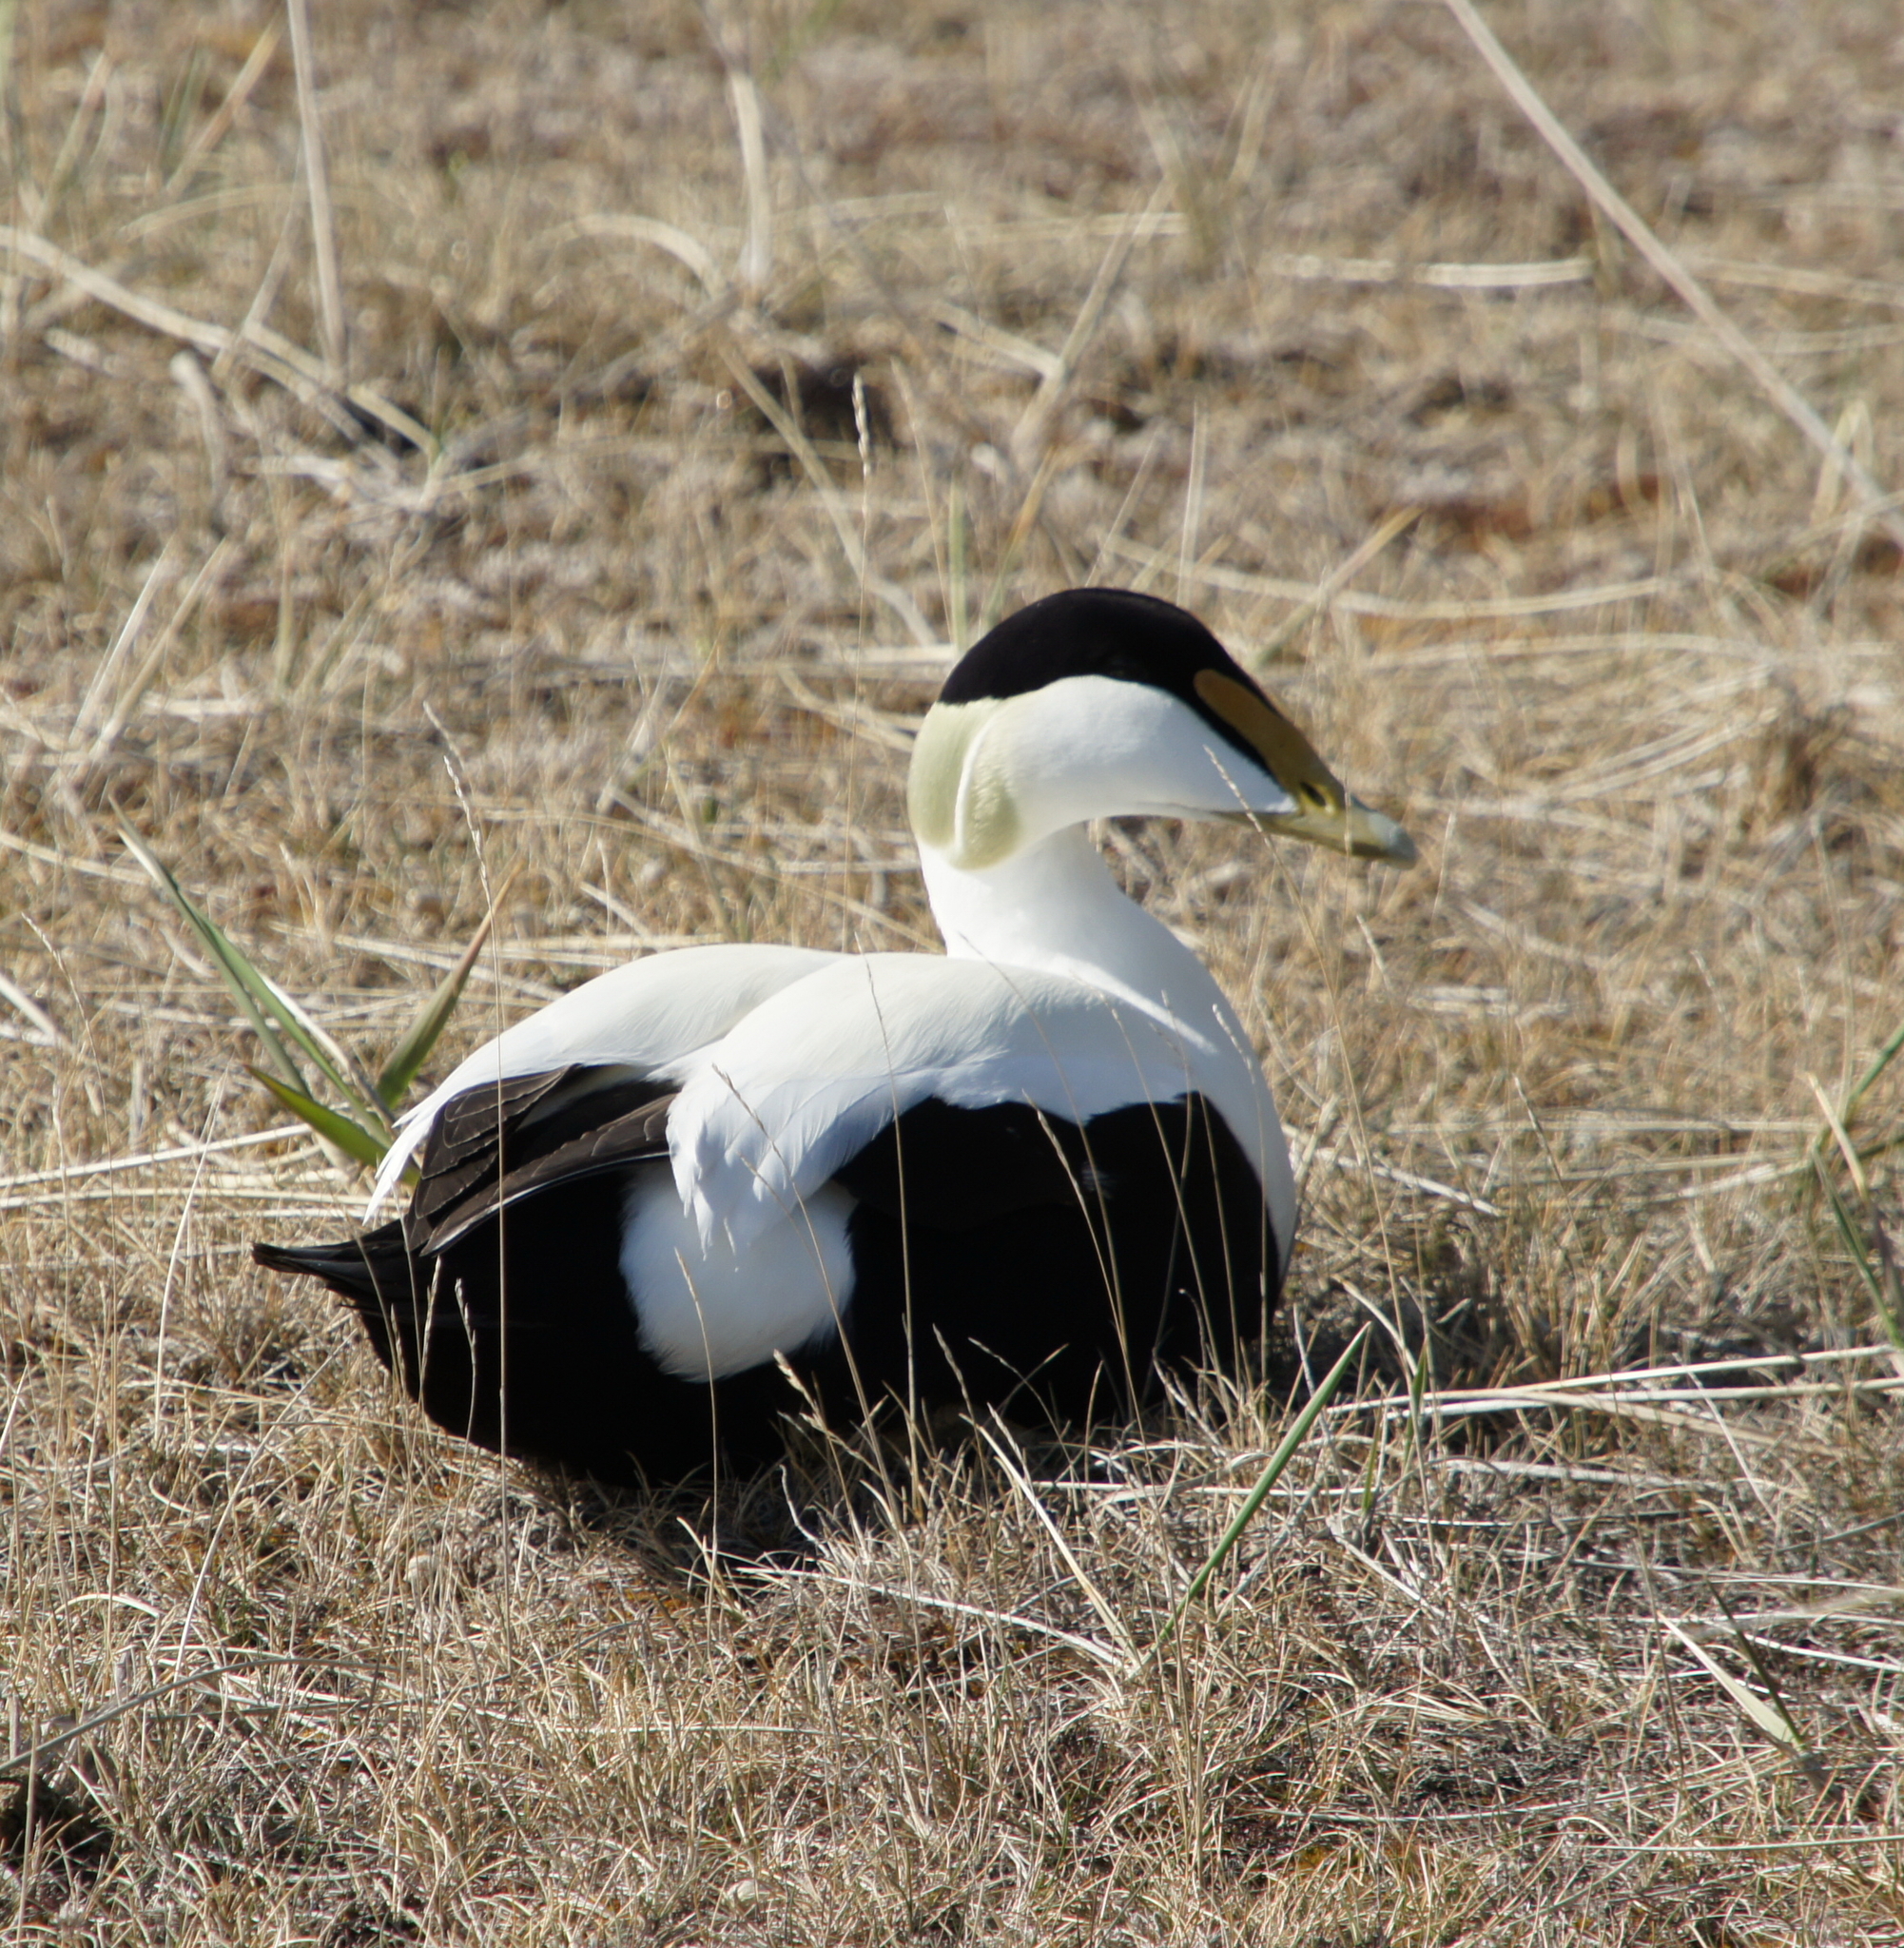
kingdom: Animalia
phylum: Chordata
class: Aves
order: Anseriformes
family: Anatidae
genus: Somateria
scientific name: Somateria mollissima
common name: Common eider
